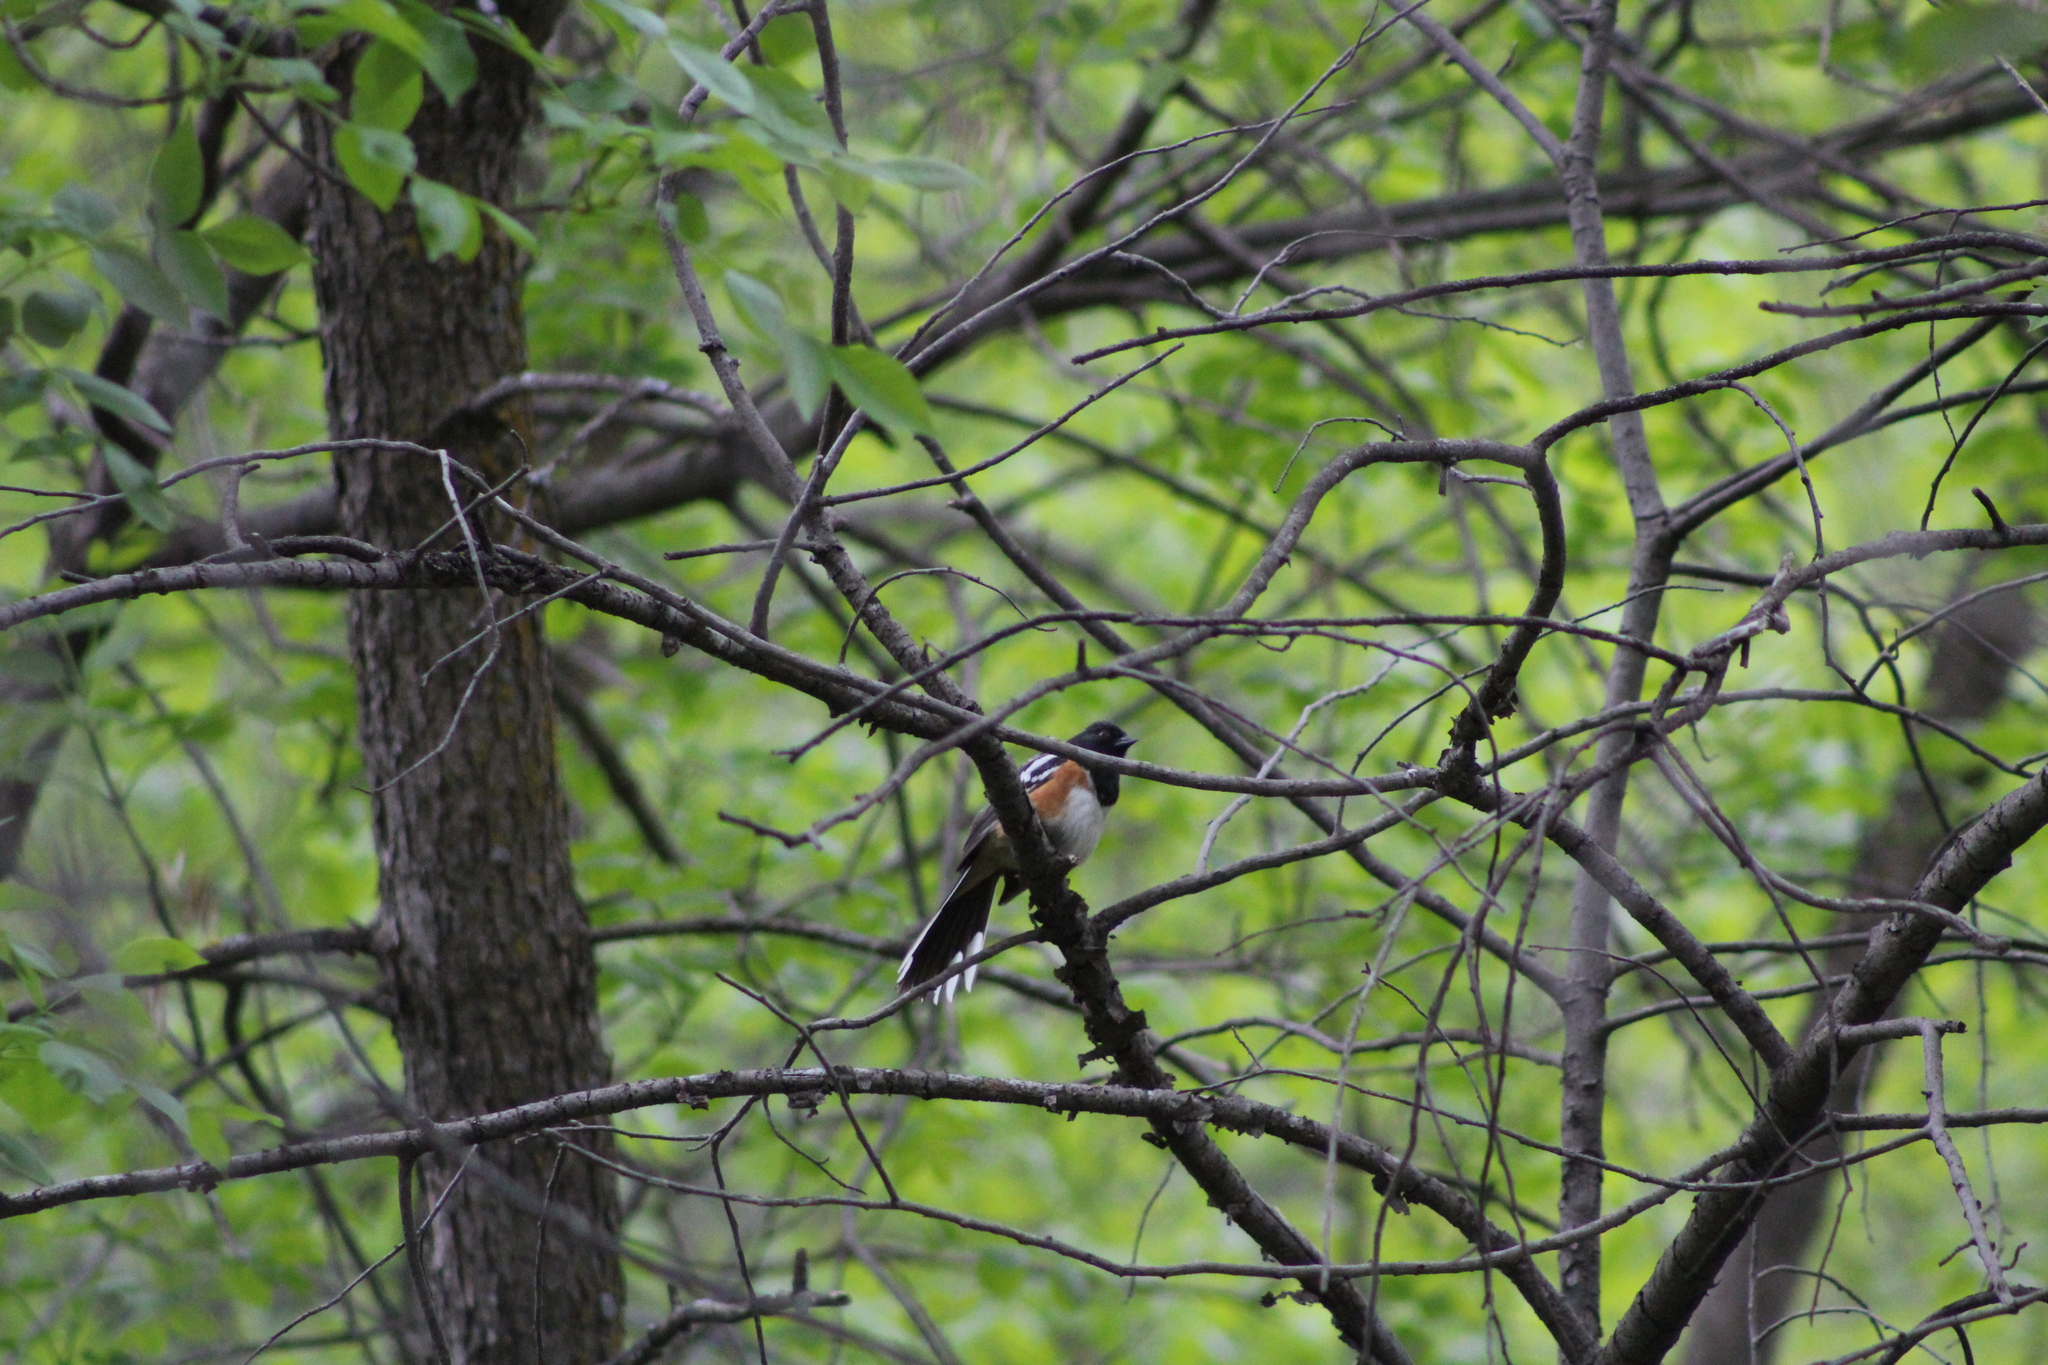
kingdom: Animalia
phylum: Chordata
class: Aves
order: Passeriformes
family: Passerellidae
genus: Pipilo
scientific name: Pipilo maculatus
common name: Spotted towhee
